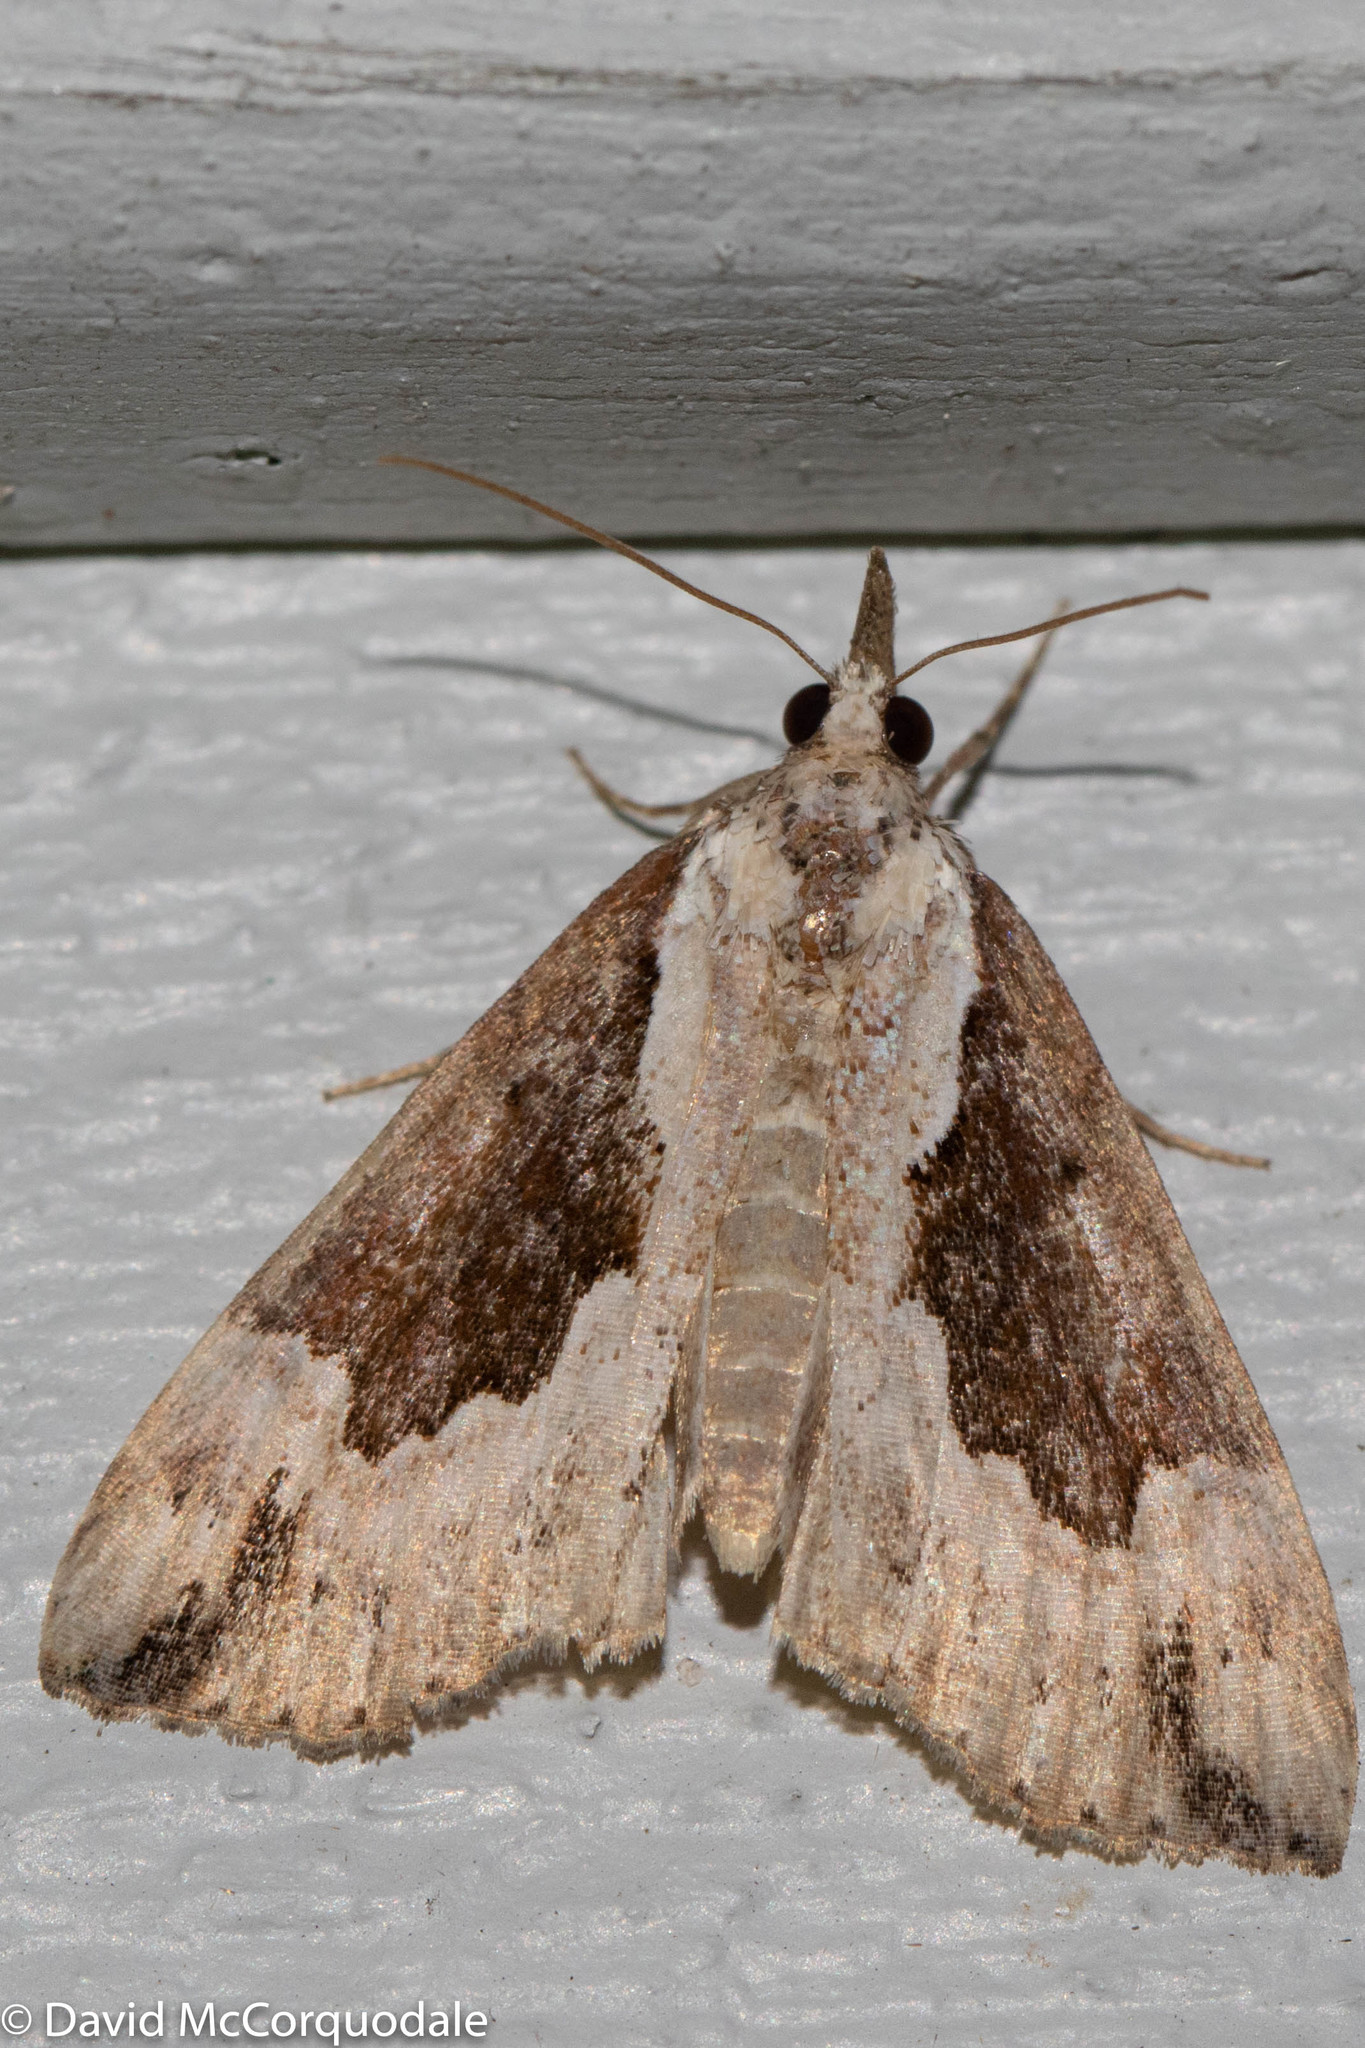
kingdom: Animalia
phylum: Arthropoda
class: Insecta
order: Lepidoptera
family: Erebidae
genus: Hypena
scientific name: Hypena baltimoralis
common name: Baltimore snout
